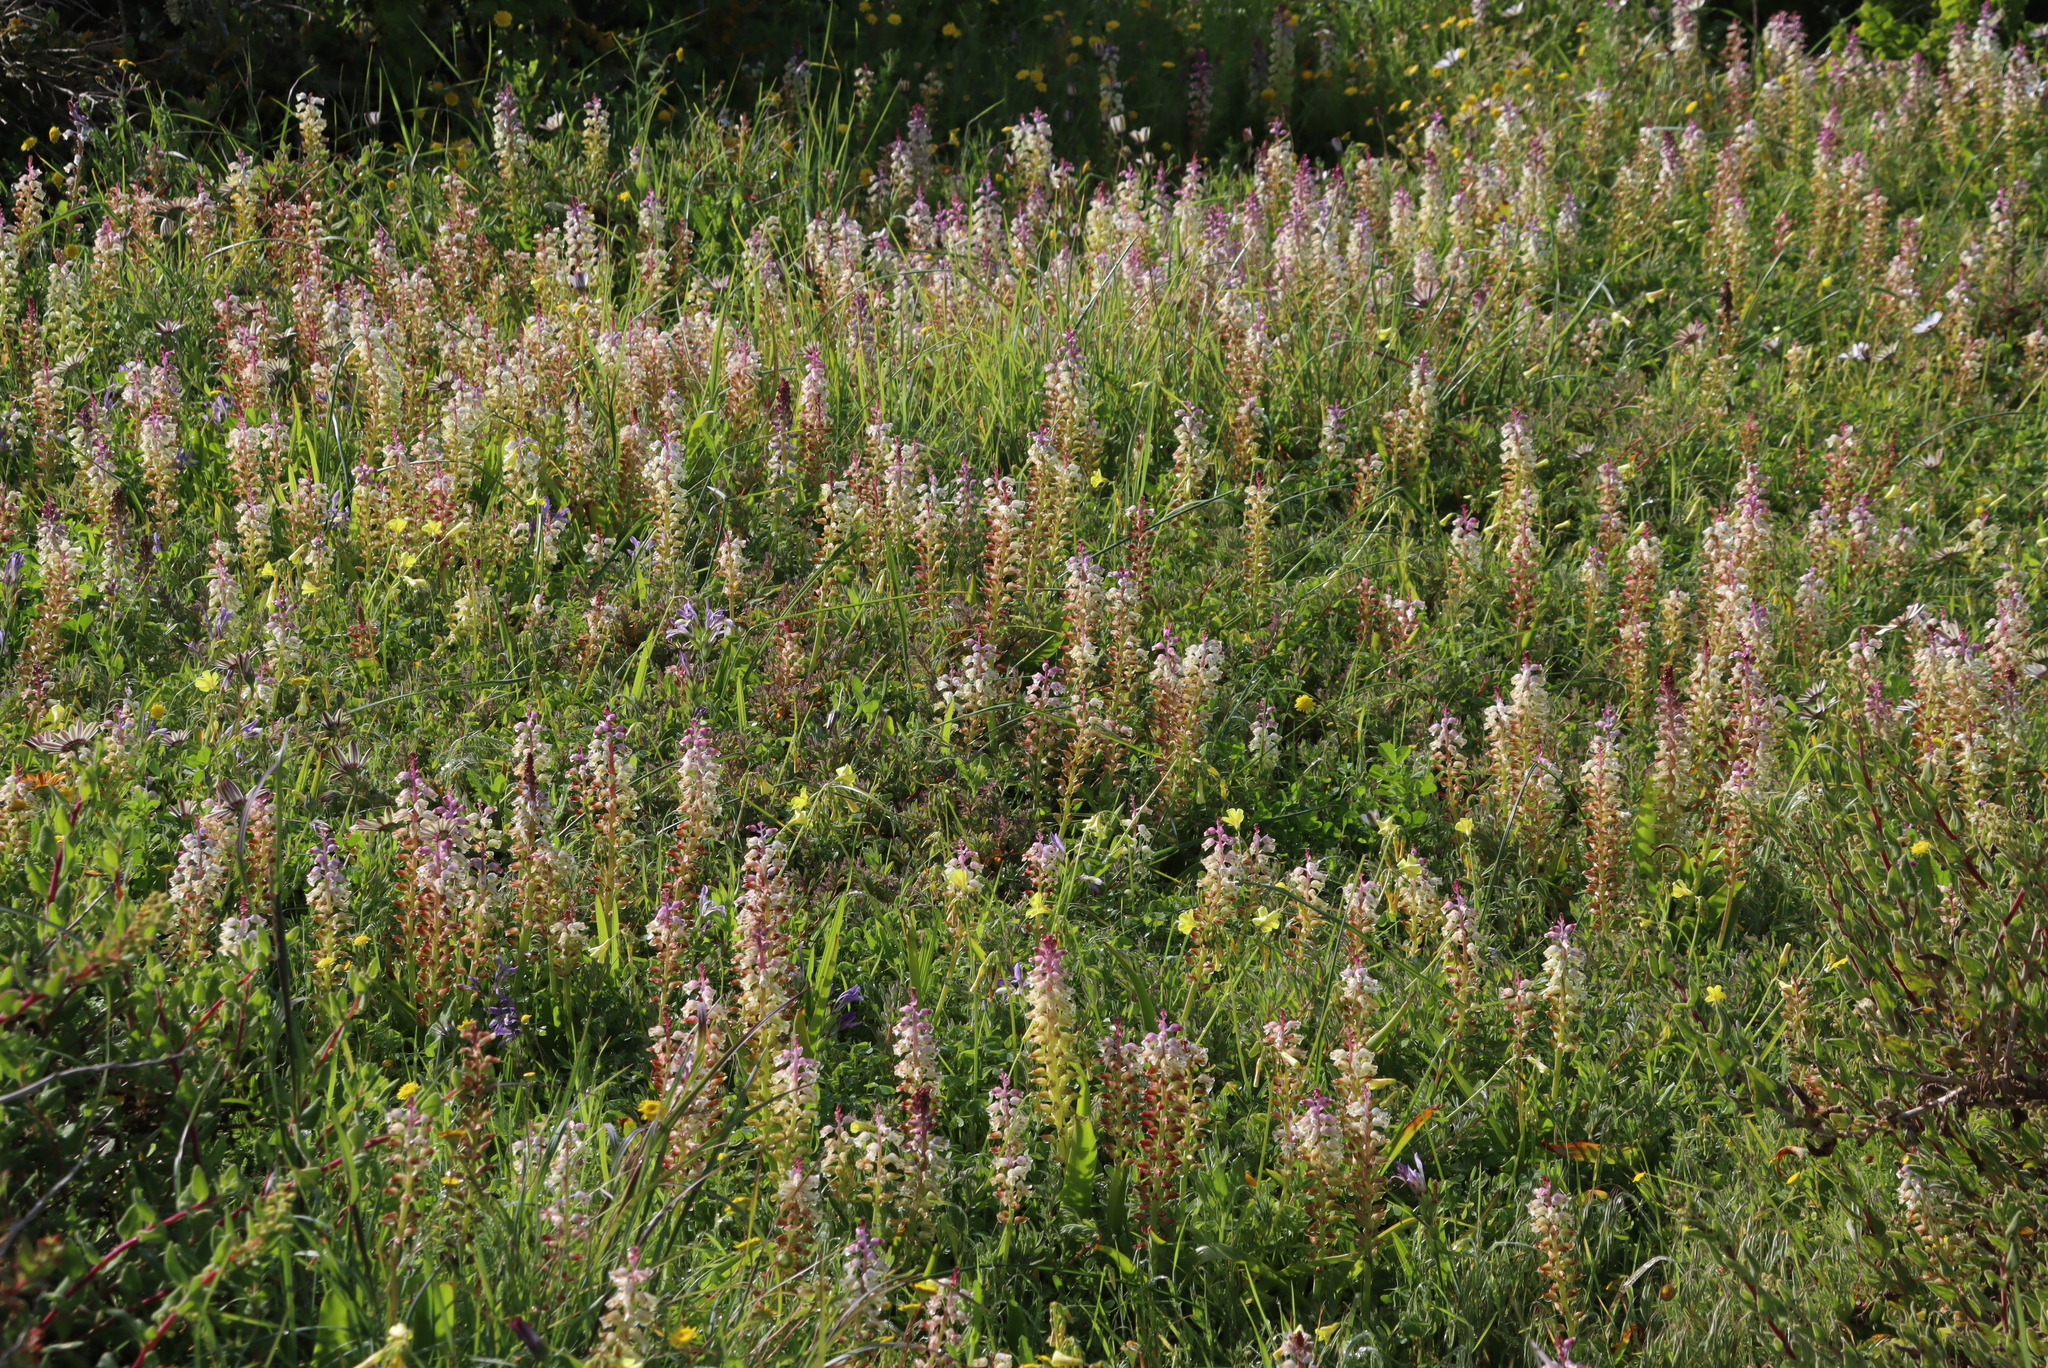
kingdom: Plantae
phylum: Tracheophyta
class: Liliopsida
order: Asparagales
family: Asparagaceae
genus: Lachenalia
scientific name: Lachenalia pallida
